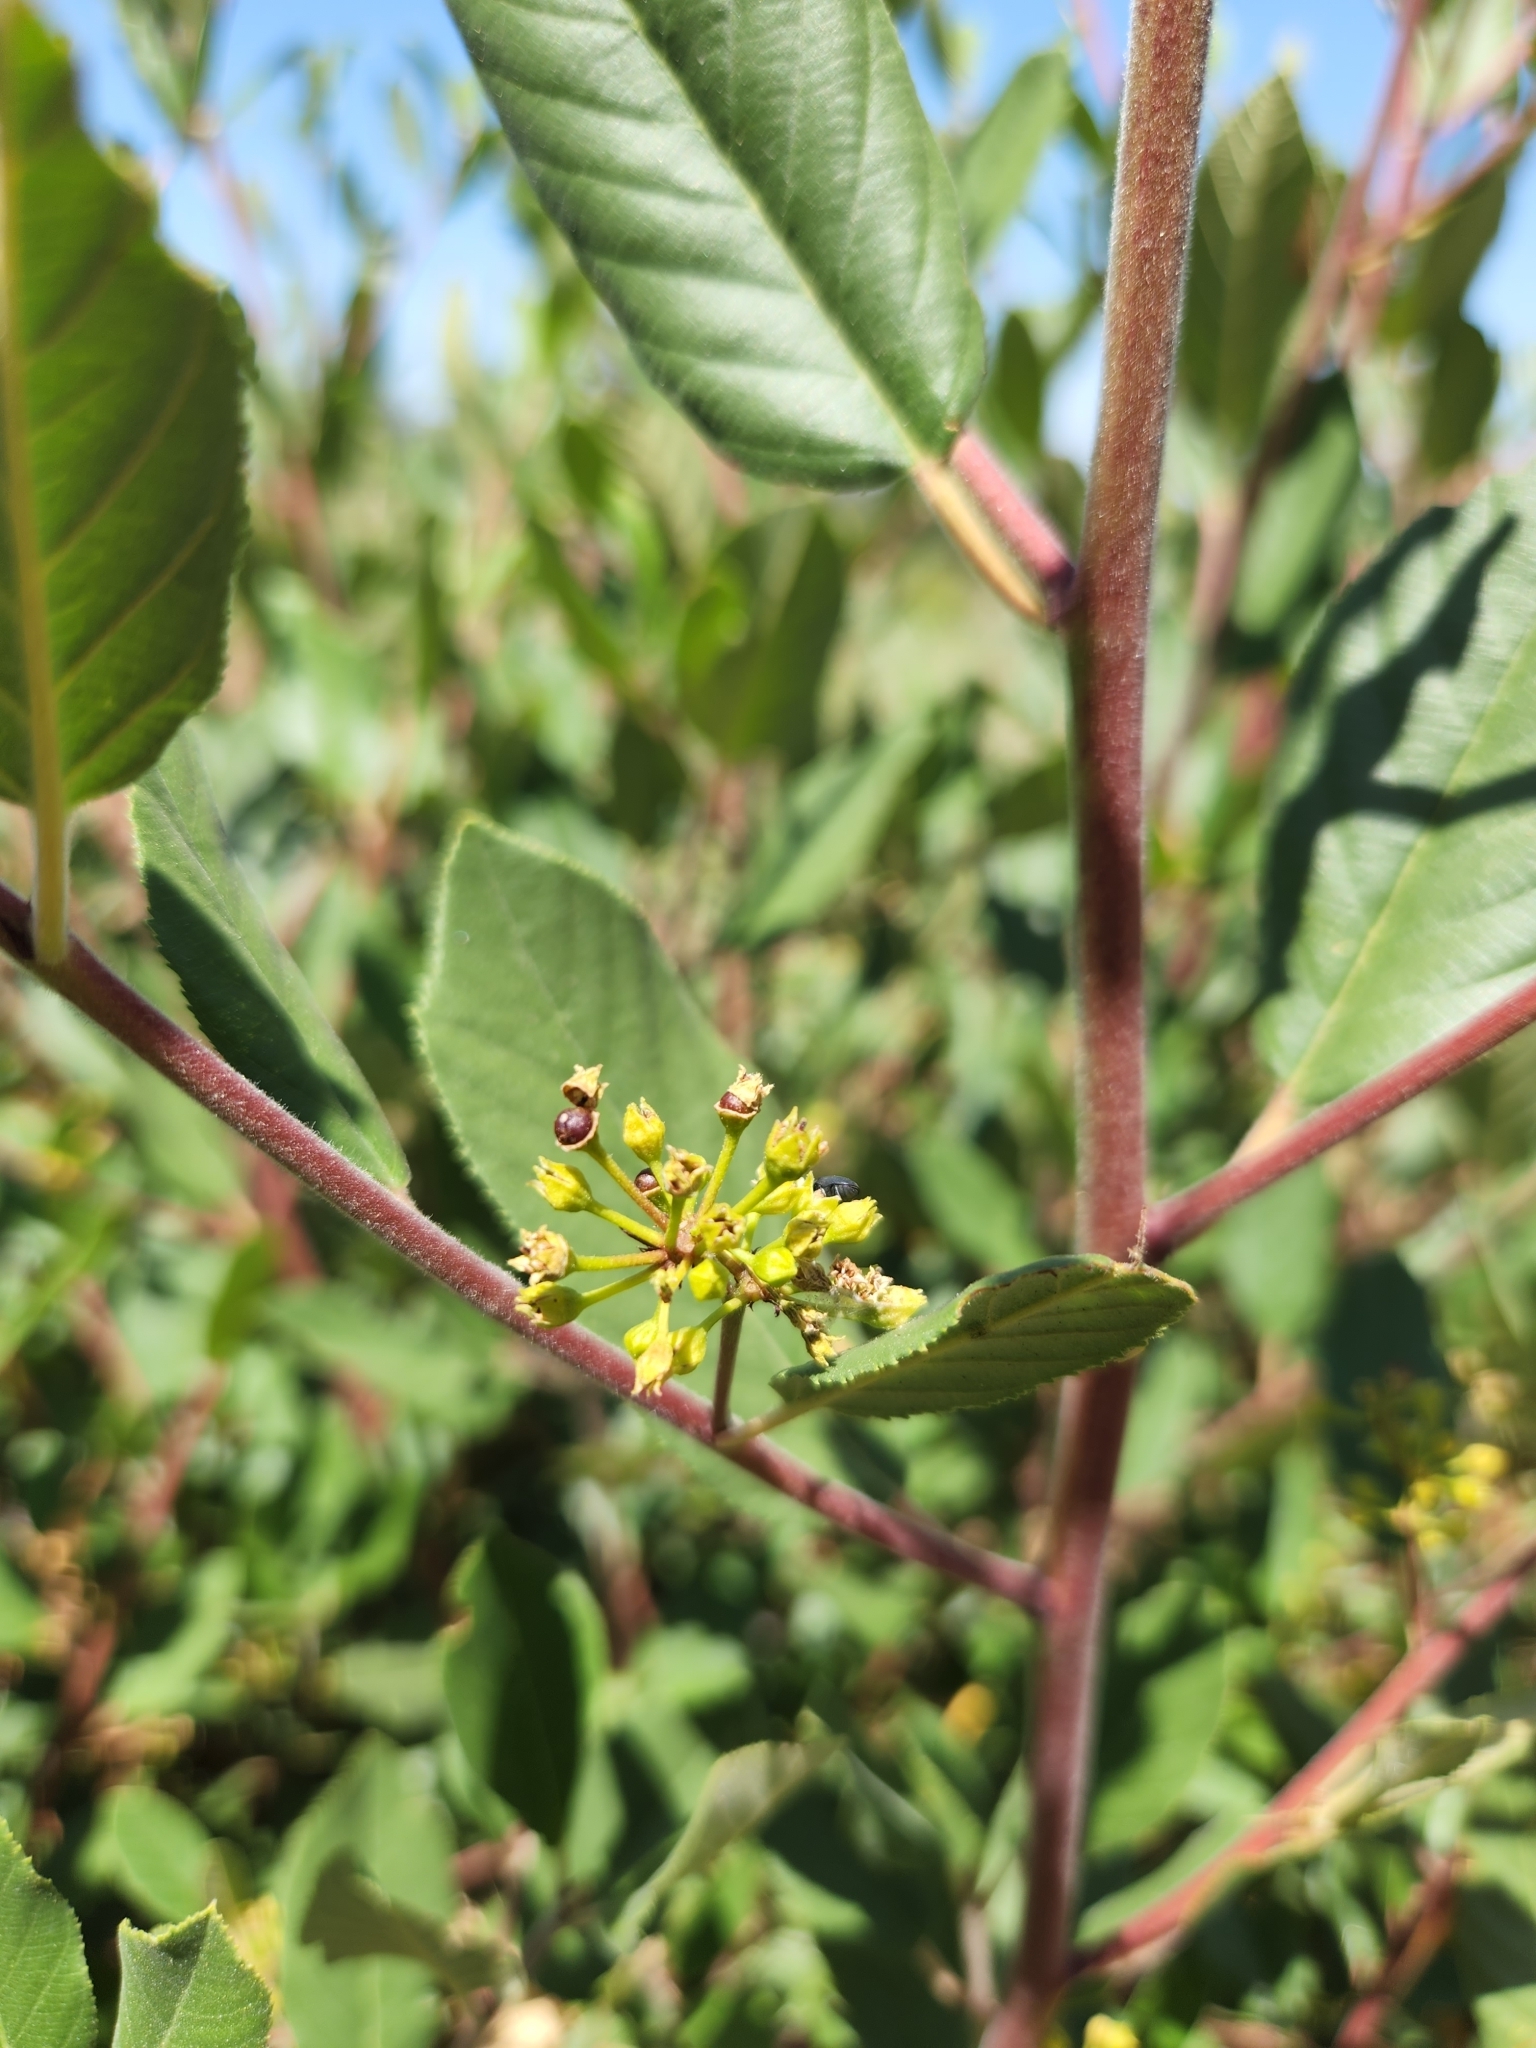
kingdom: Plantae
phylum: Tracheophyta
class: Magnoliopsida
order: Rosales
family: Rhamnaceae
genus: Frangula
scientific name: Frangula californica
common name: California buckthorn
